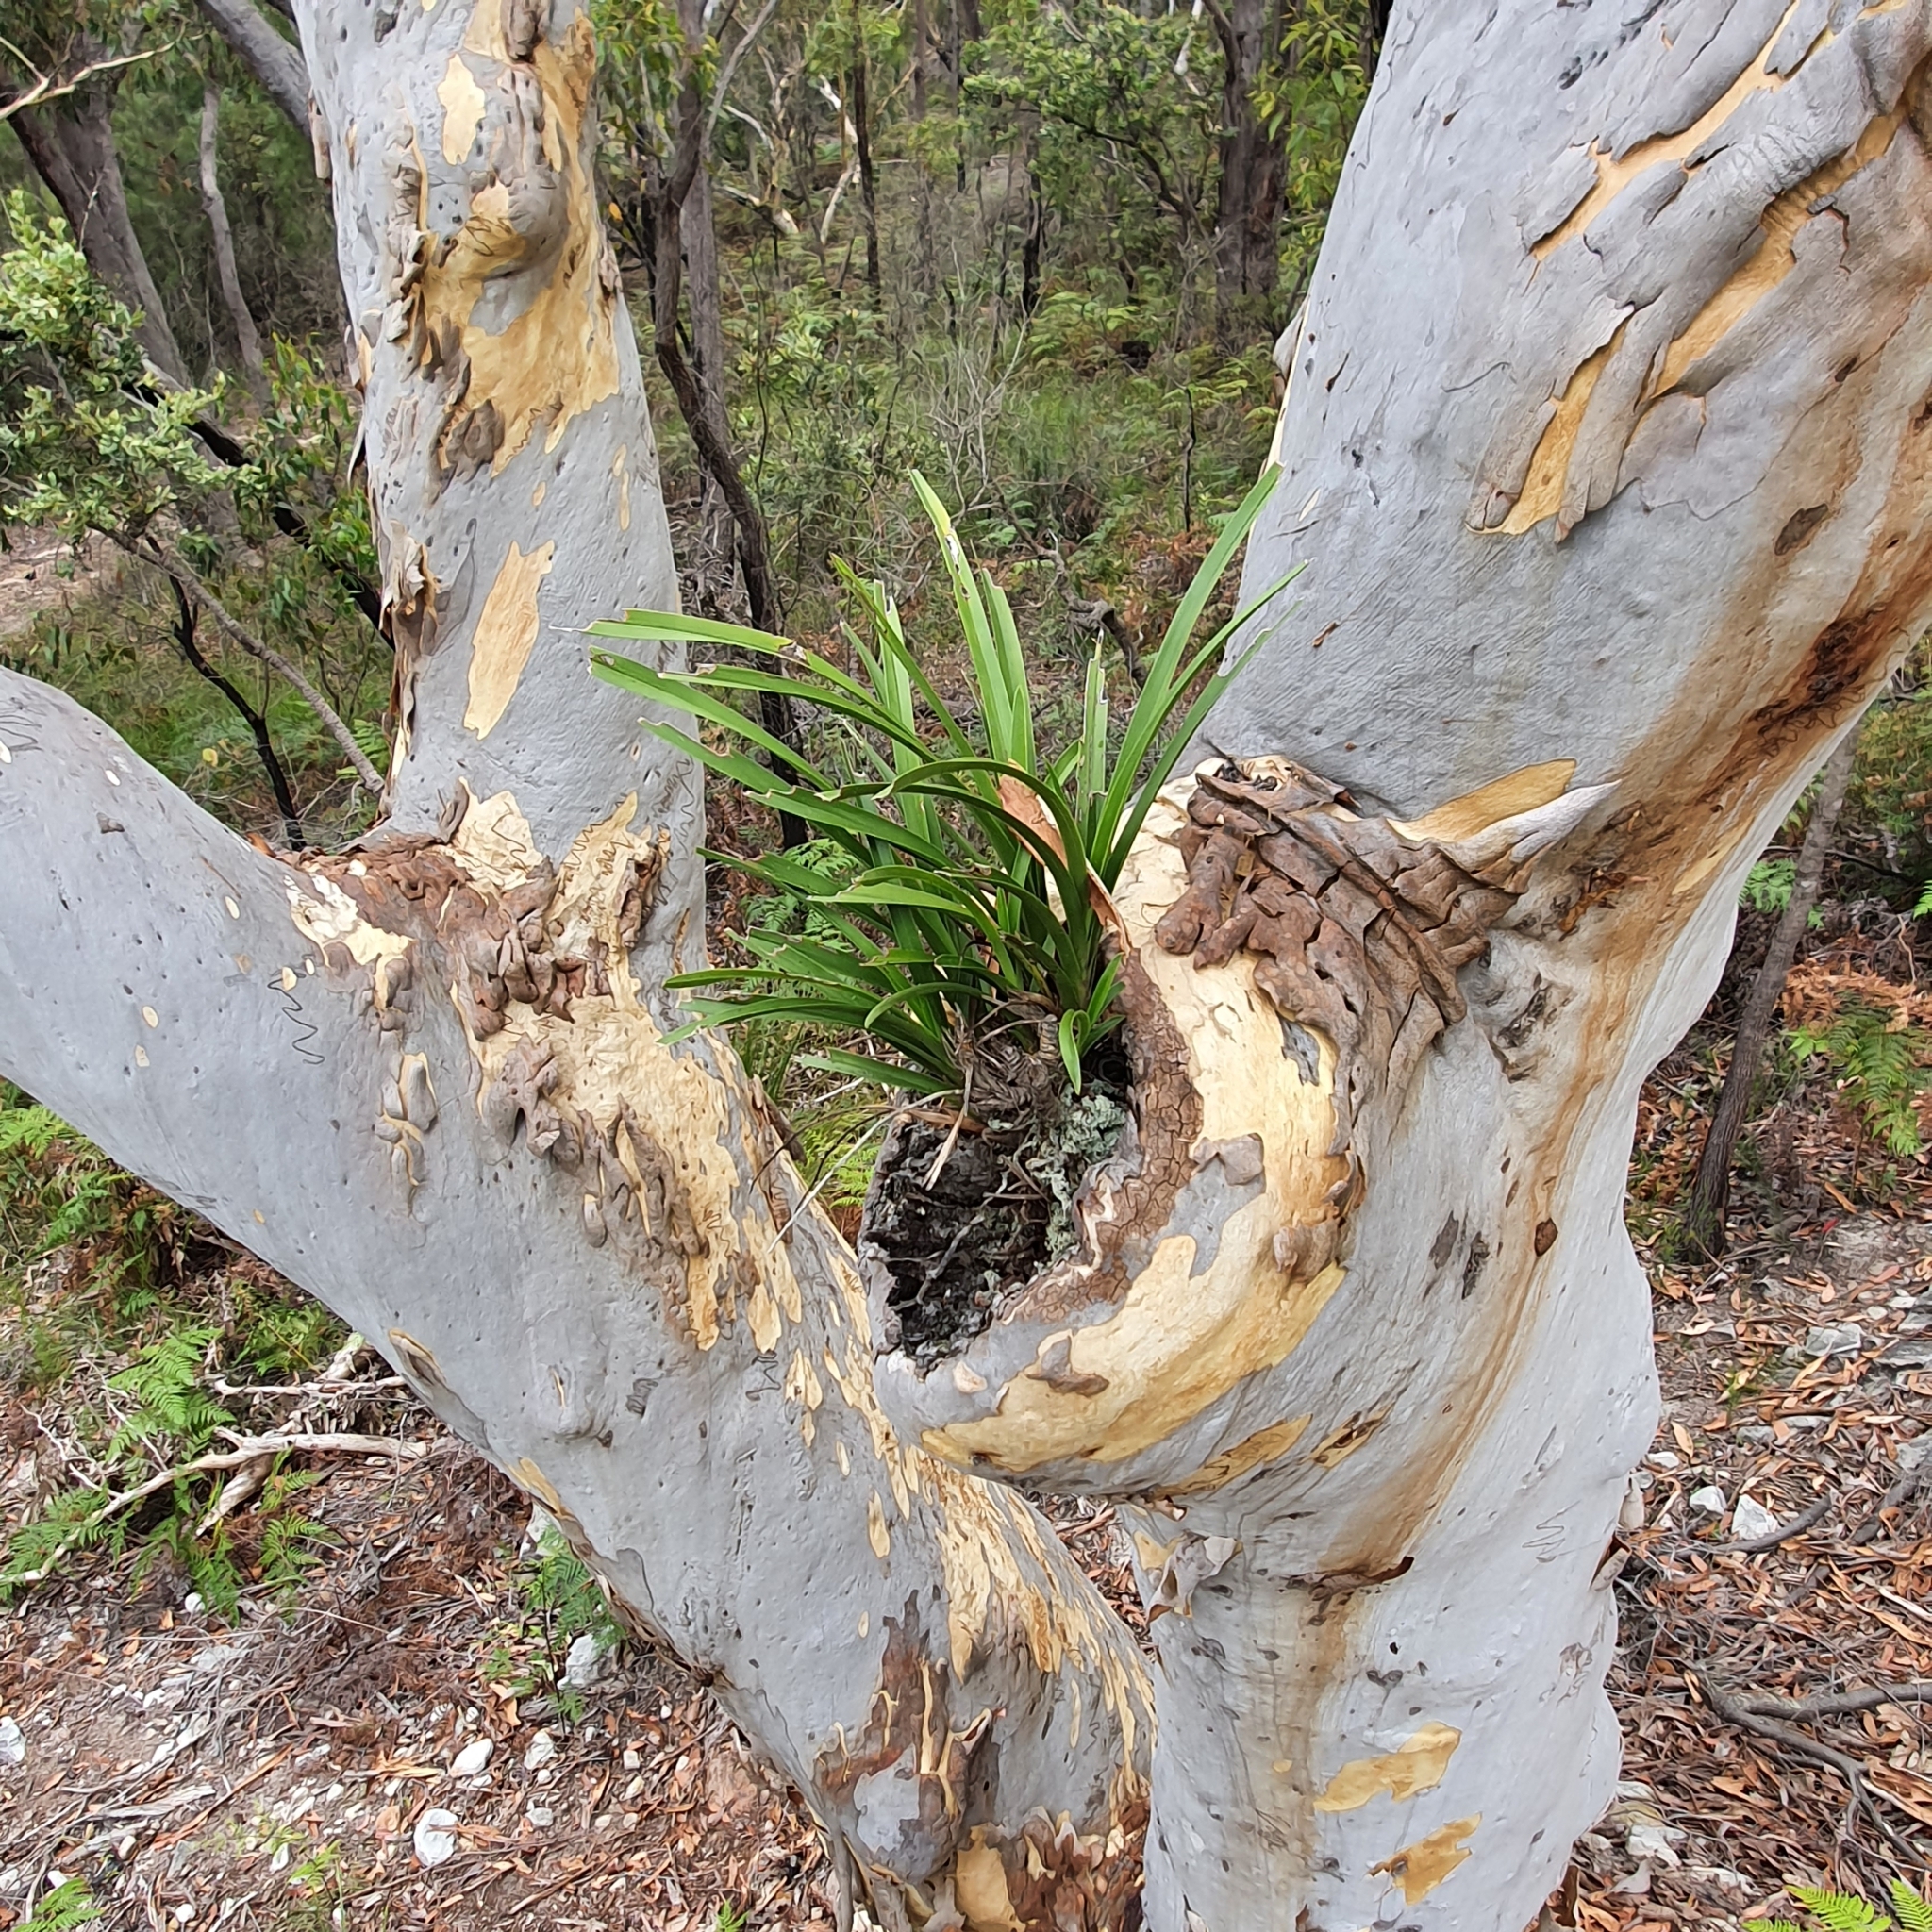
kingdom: Plantae
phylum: Tracheophyta
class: Liliopsida
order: Asparagales
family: Orchidaceae
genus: Cymbidium
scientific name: Cymbidium suave
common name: Snake orchid
